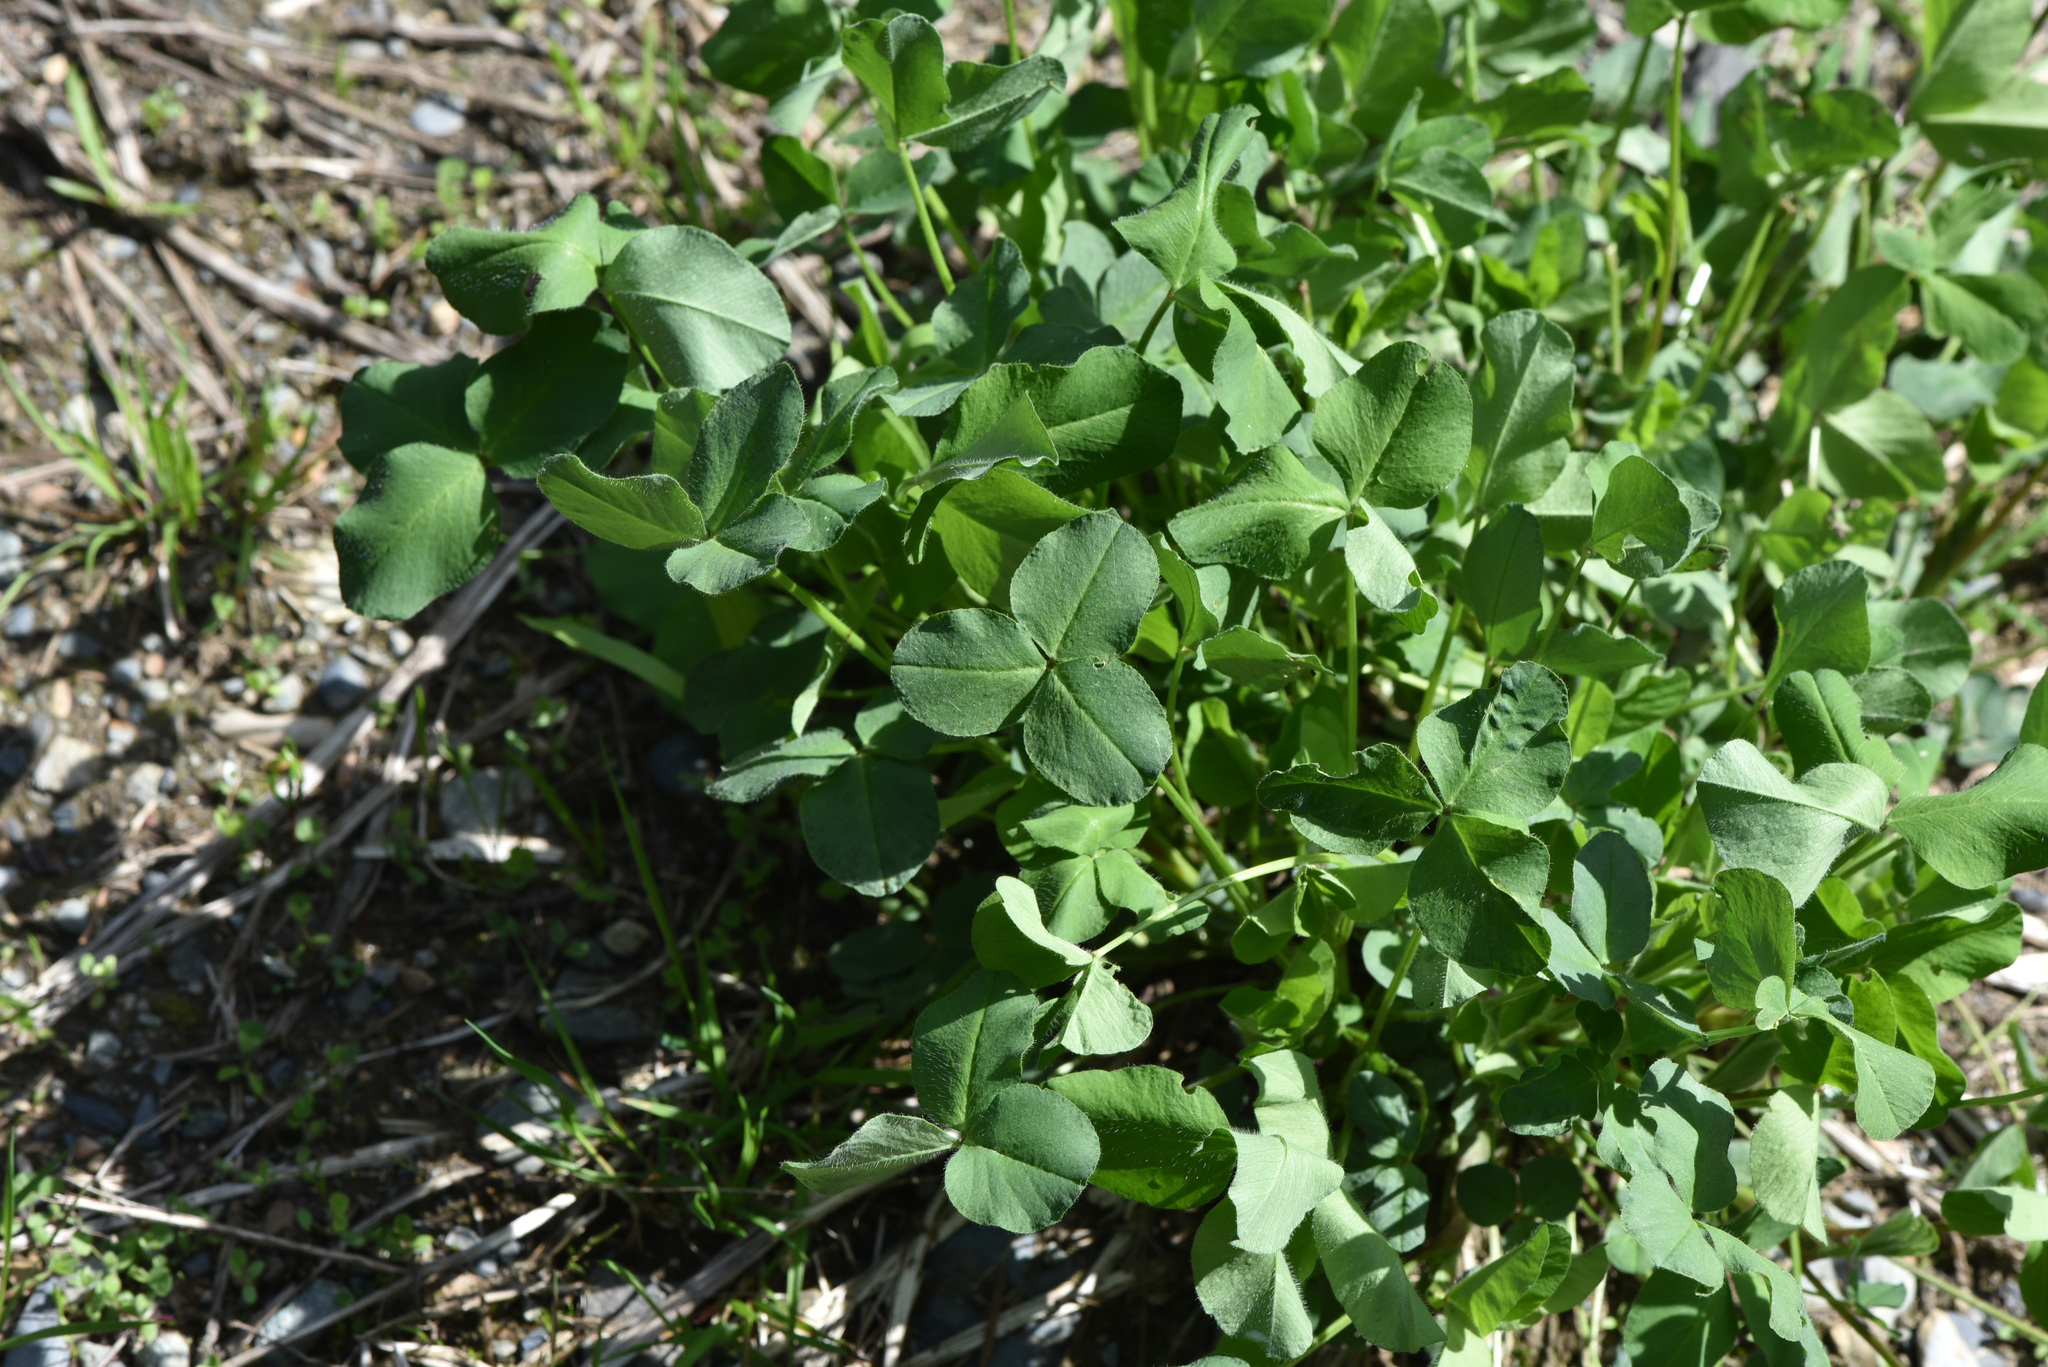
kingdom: Plantae
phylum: Tracheophyta
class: Magnoliopsida
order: Fabales
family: Fabaceae
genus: Trifolium
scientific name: Trifolium pratense
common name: Red clover
